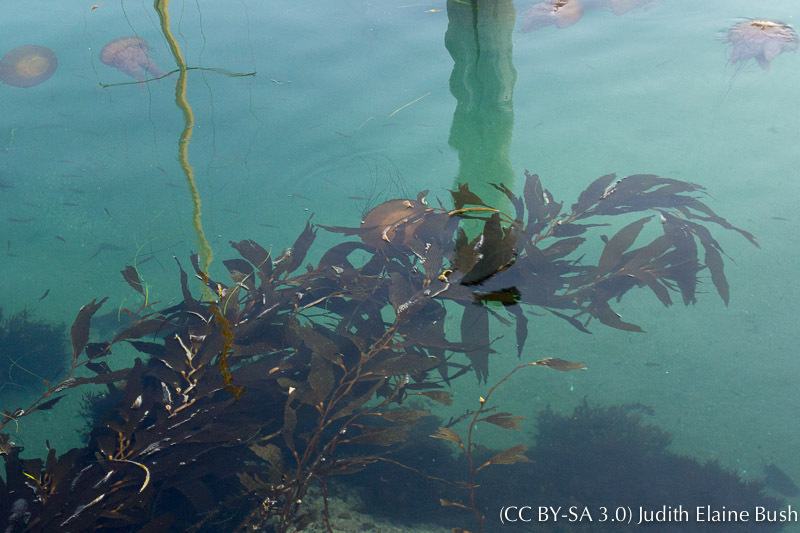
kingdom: Animalia
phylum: Cnidaria
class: Scyphozoa
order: Semaeostomeae
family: Pelagiidae
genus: Chrysaora
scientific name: Chrysaora fuscescens
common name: Sea nettle
